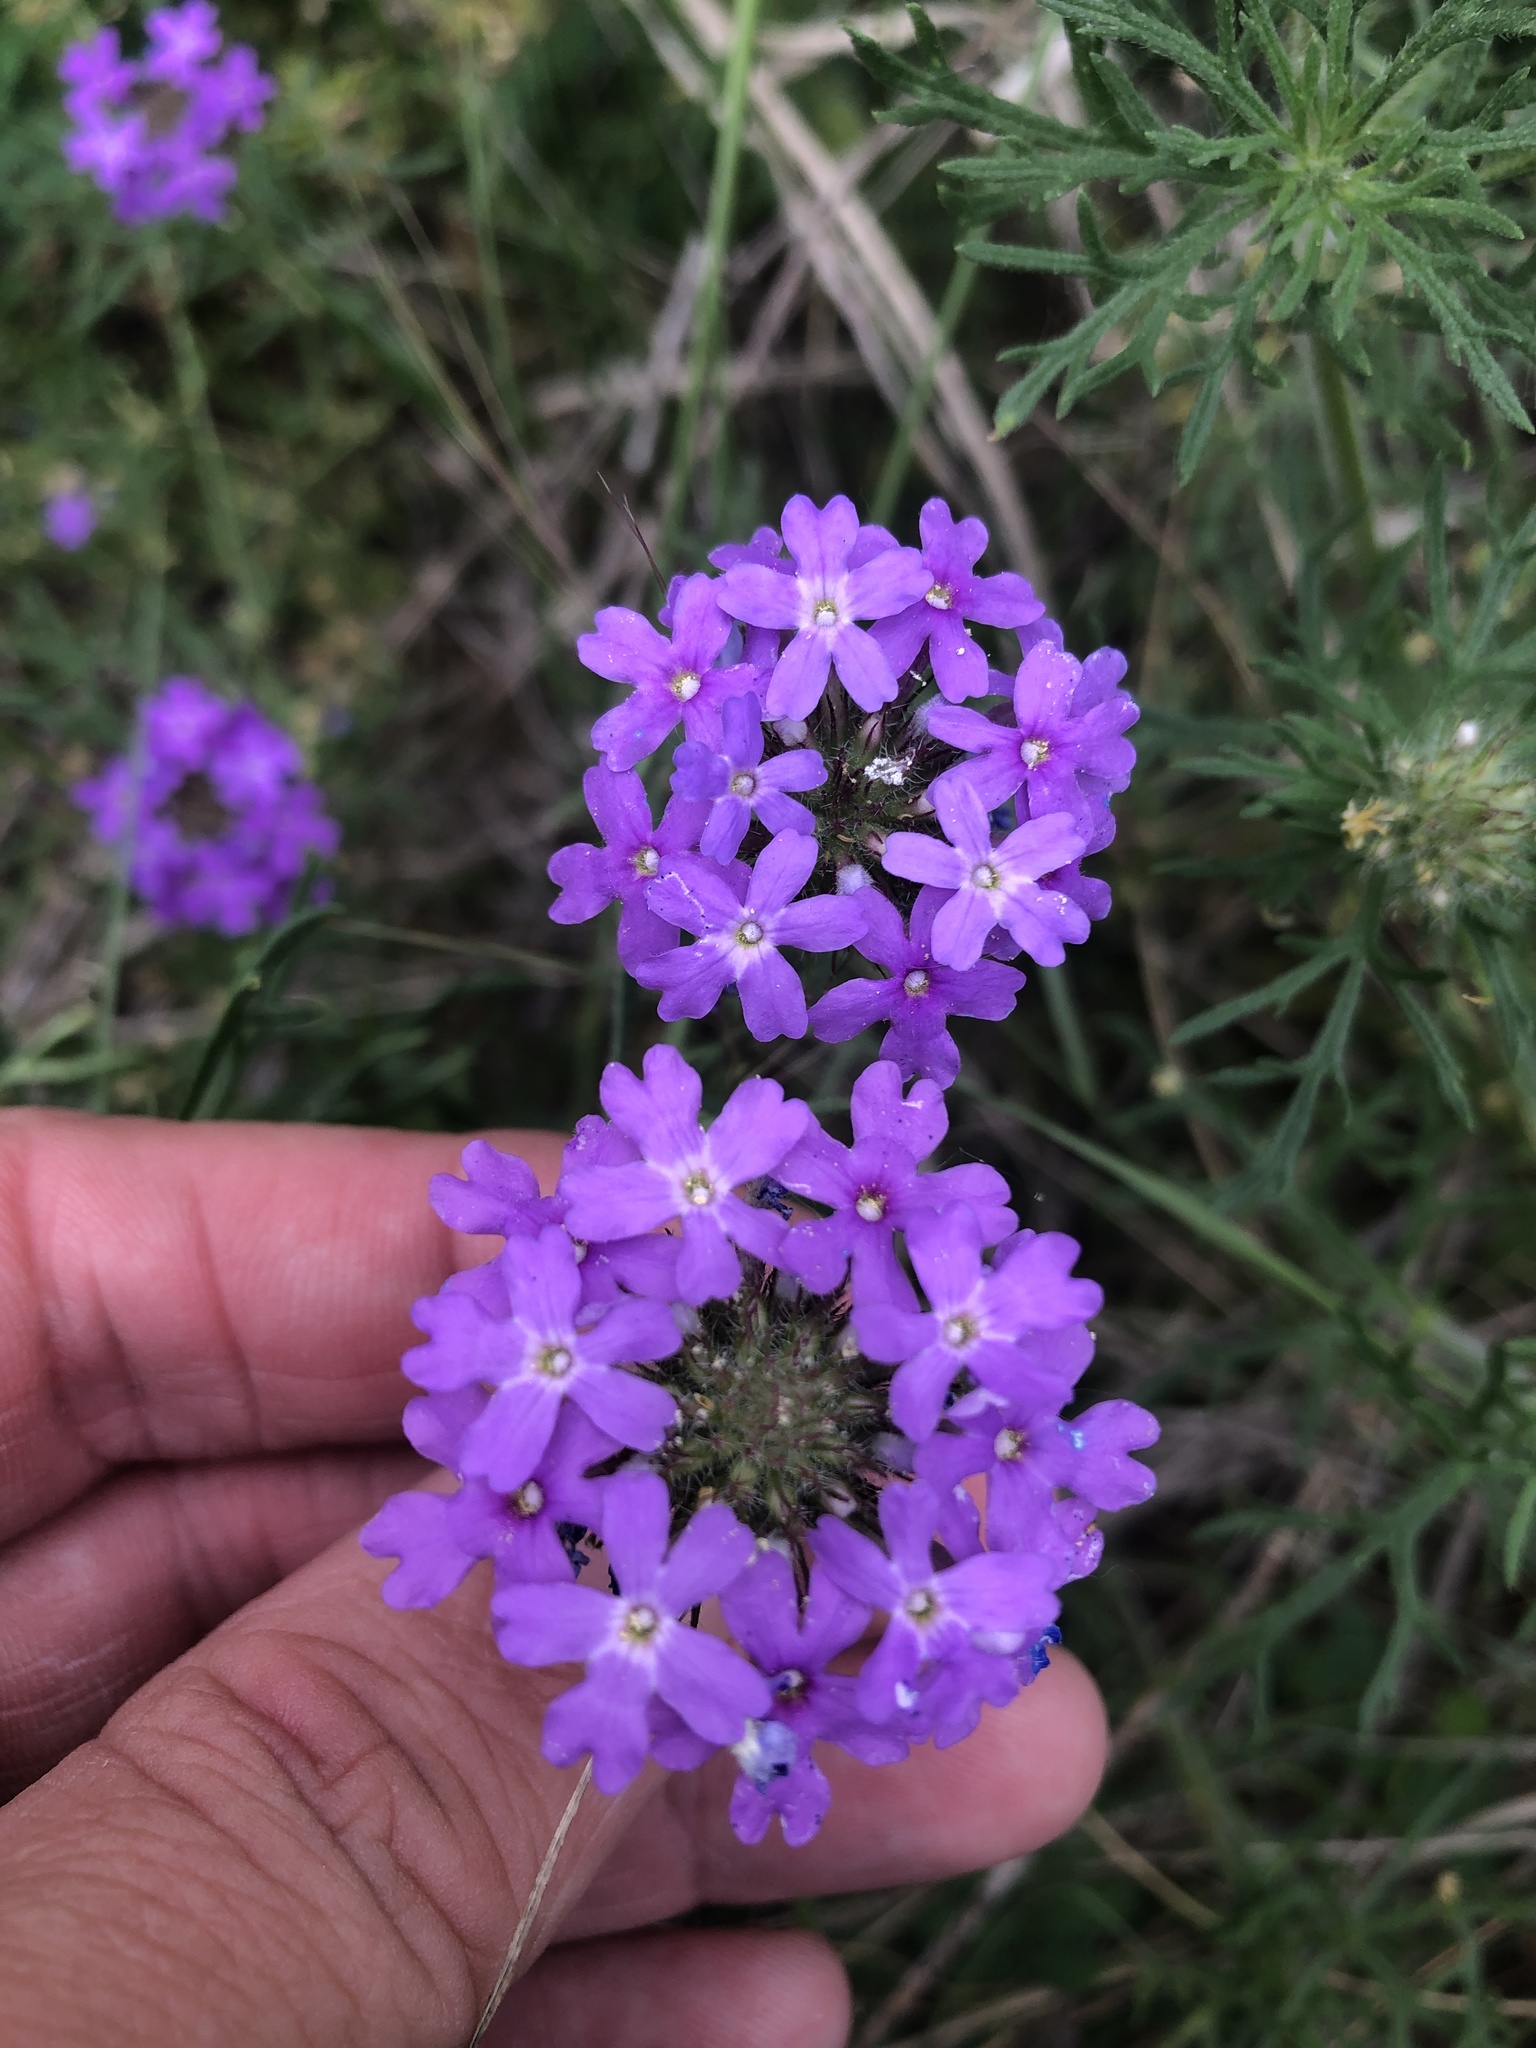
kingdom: Plantae
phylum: Tracheophyta
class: Magnoliopsida
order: Lamiales
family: Verbenaceae
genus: Verbena
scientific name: Verbena bipinnatifida
